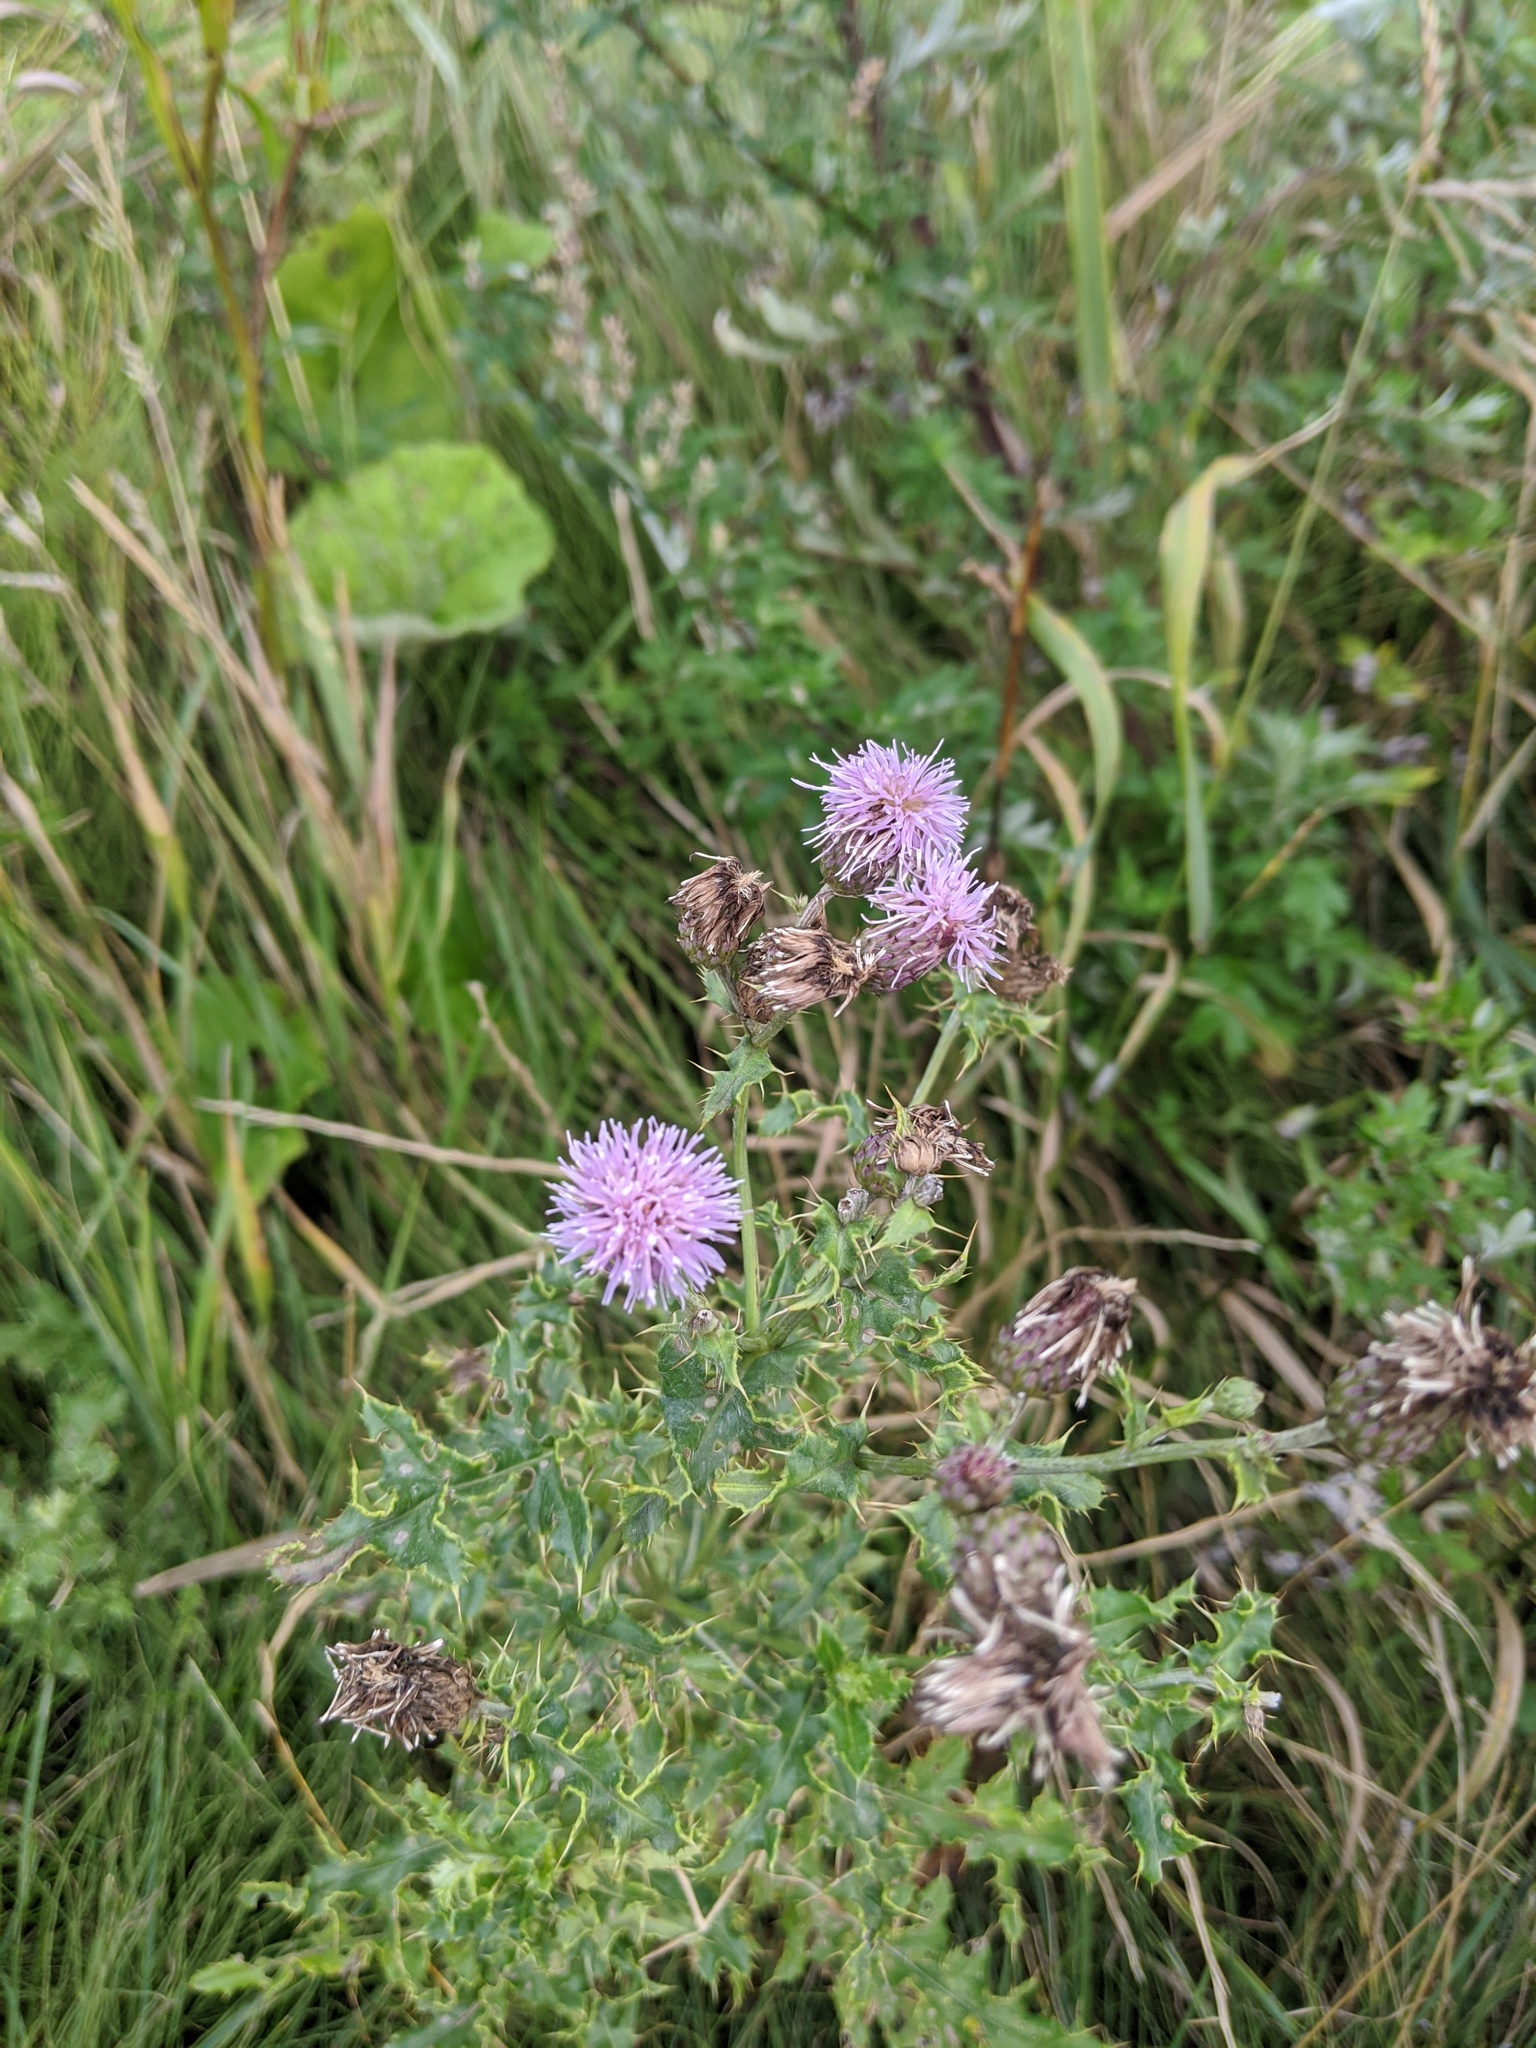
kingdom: Plantae
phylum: Tracheophyta
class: Magnoliopsida
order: Asterales
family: Asteraceae
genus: Cirsium
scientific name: Cirsium arvense
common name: Creeping thistle
